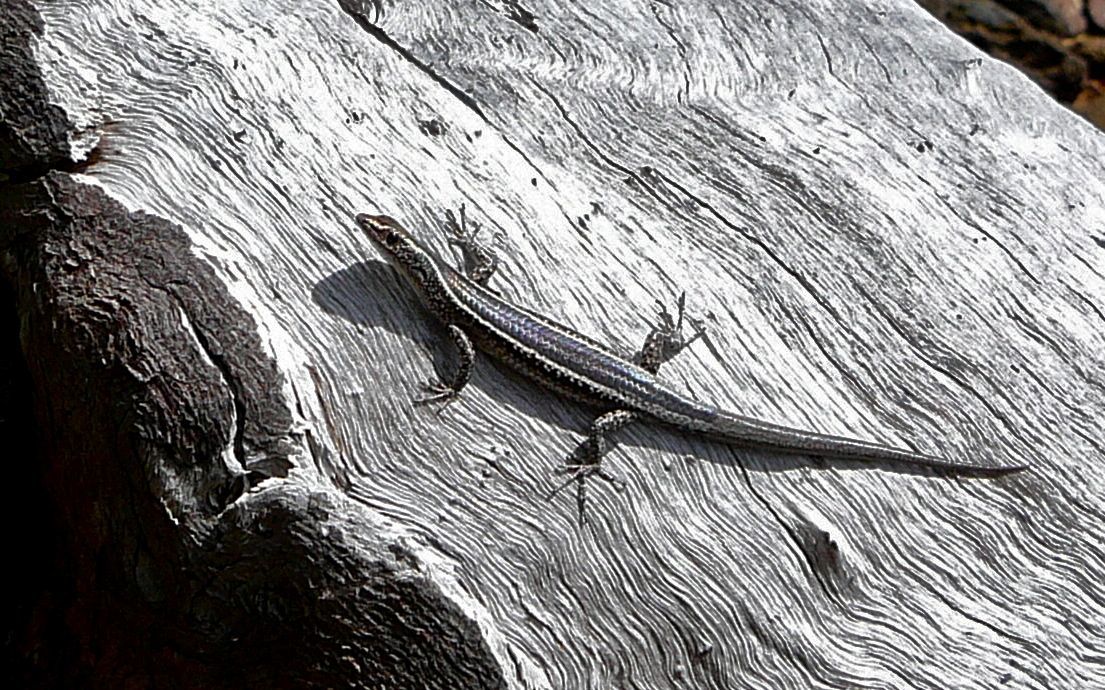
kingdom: Animalia
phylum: Chordata
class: Squamata
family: Scincidae
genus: Cryptoblepharus
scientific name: Cryptoblepharus pulcher
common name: Elegant snake-eyed skink
